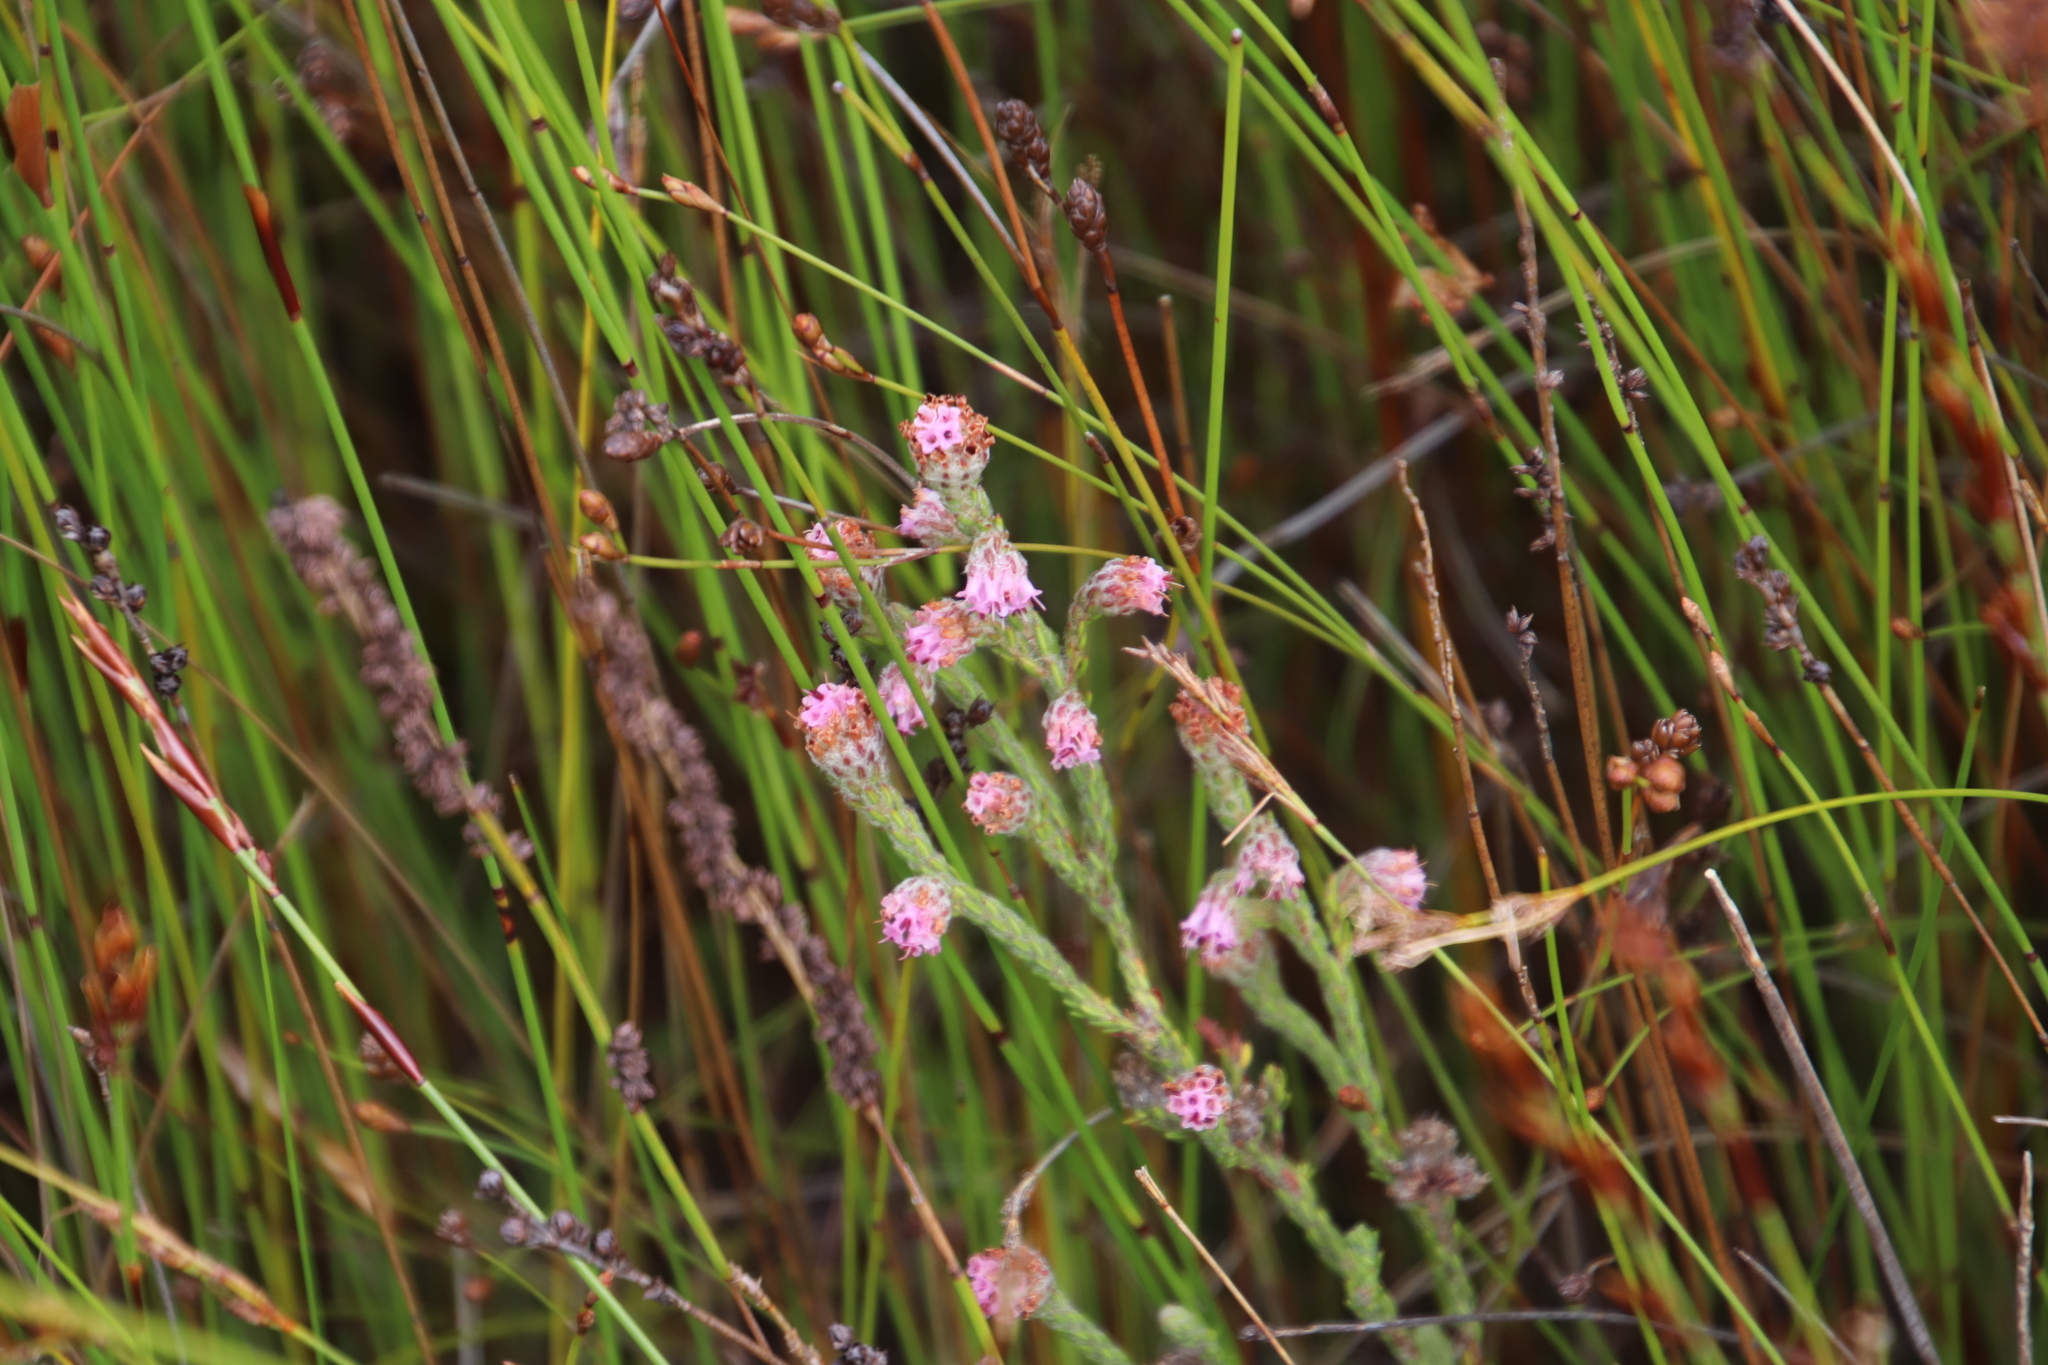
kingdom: Plantae
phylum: Tracheophyta
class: Magnoliopsida
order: Ericales
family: Ericaceae
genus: Erica
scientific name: Erica barbigeroides
